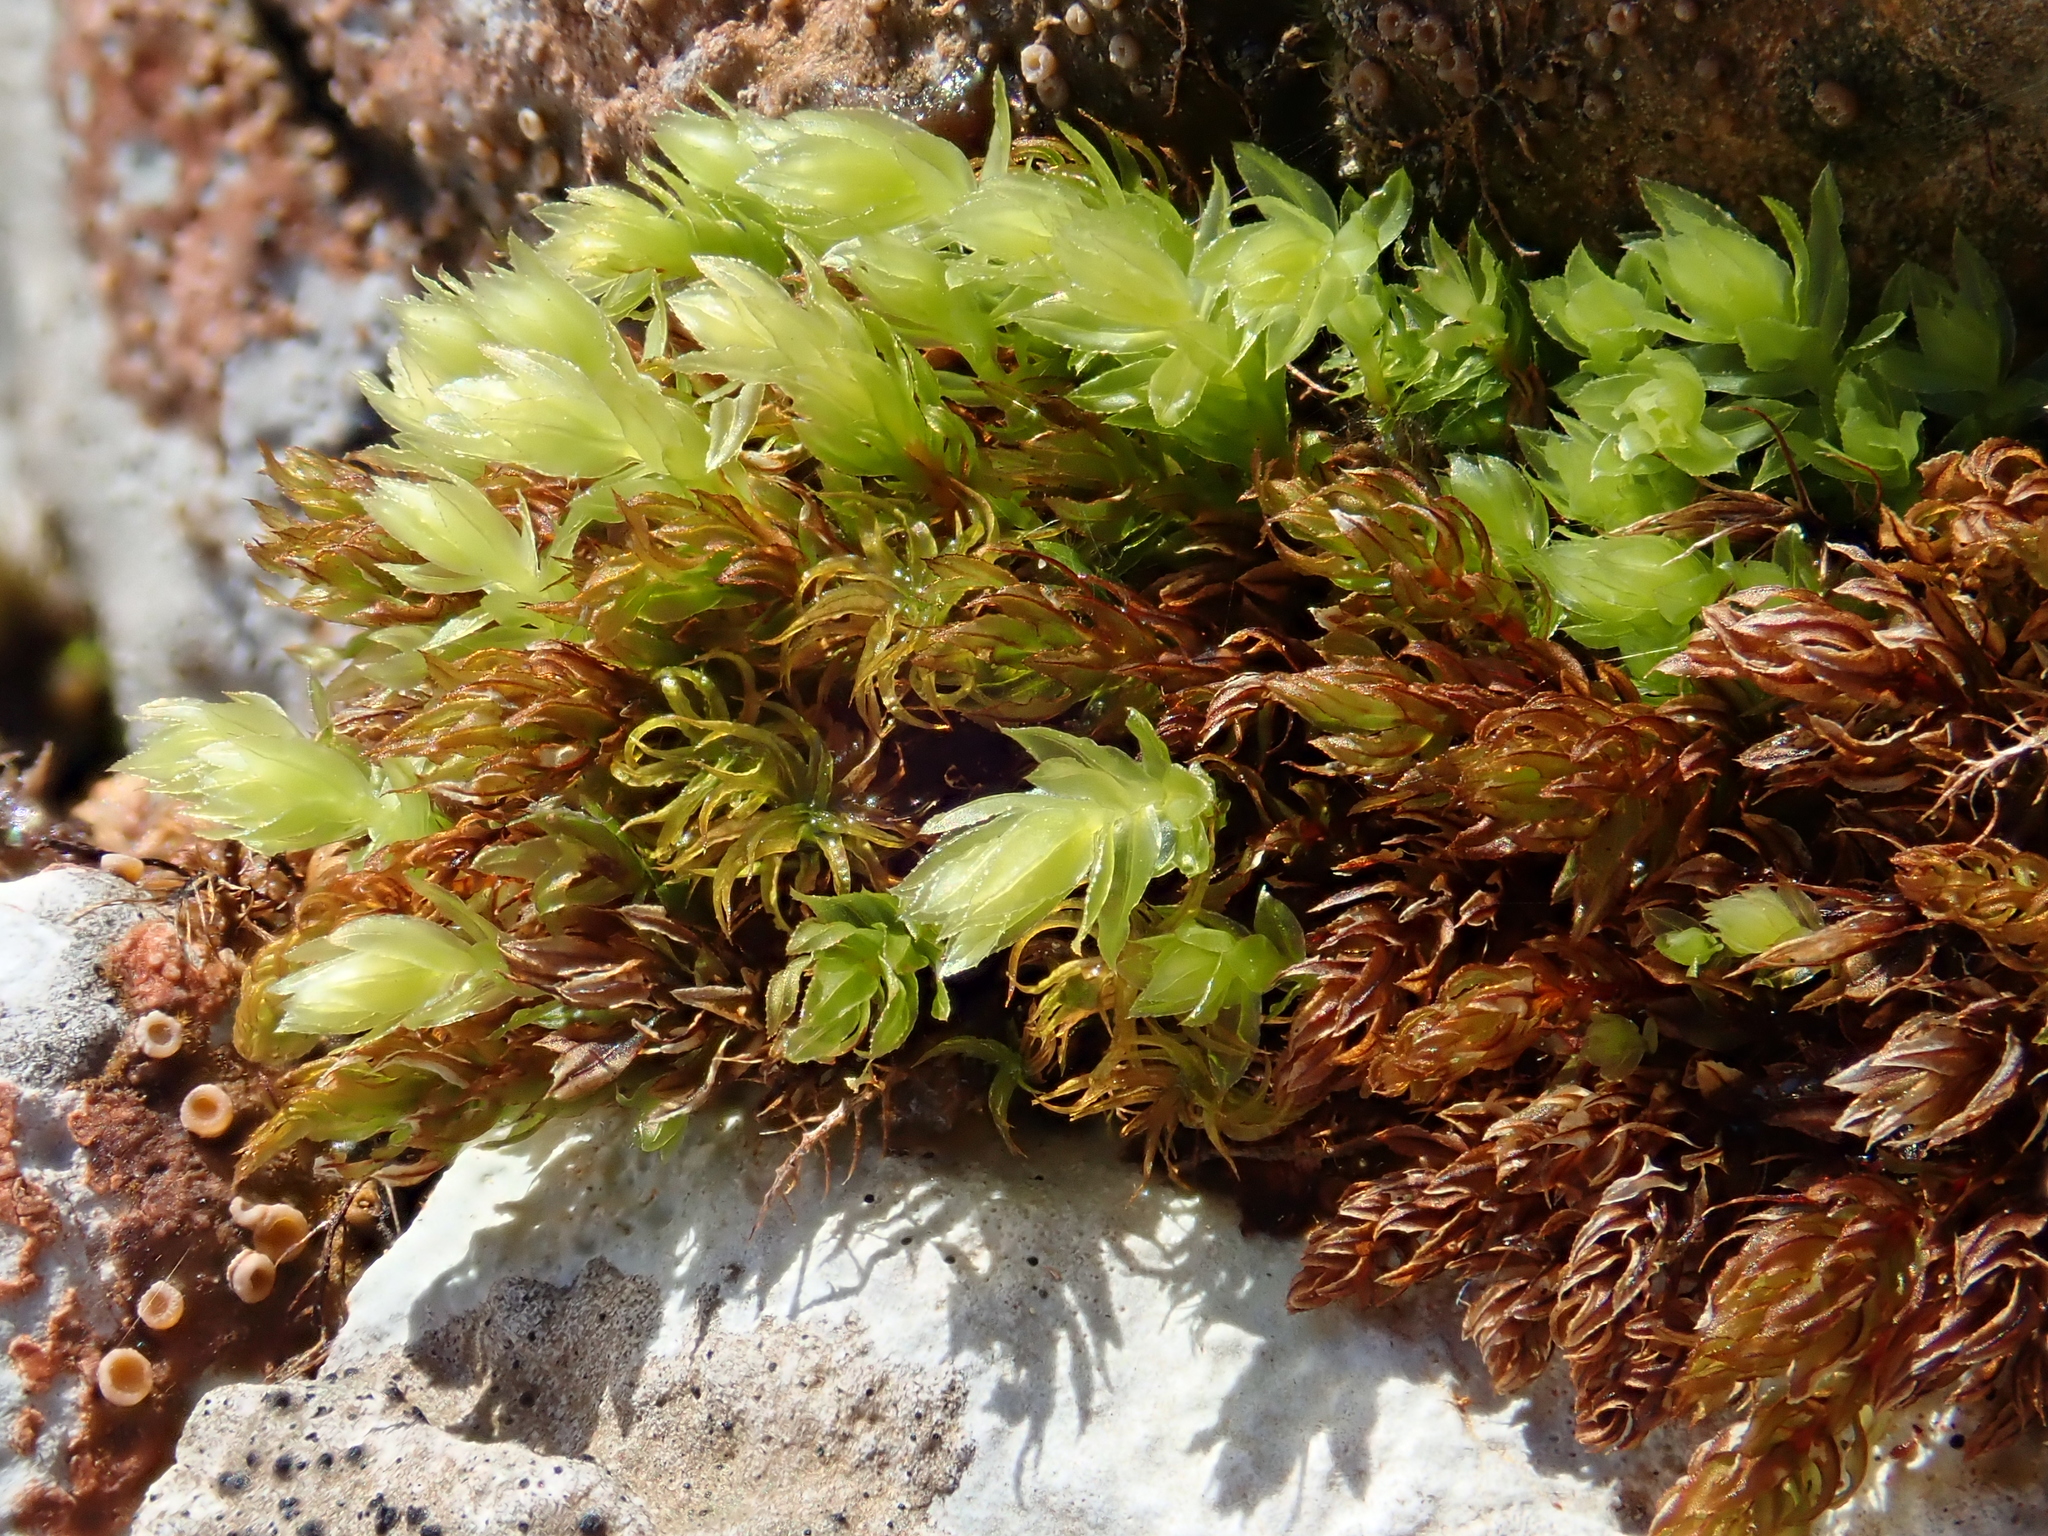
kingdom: Plantae
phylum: Bryophyta
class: Bryopsida
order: Bryales
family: Mniaceae
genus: Mnium
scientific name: Mnium thomsonii
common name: Thomson's leafy moss
